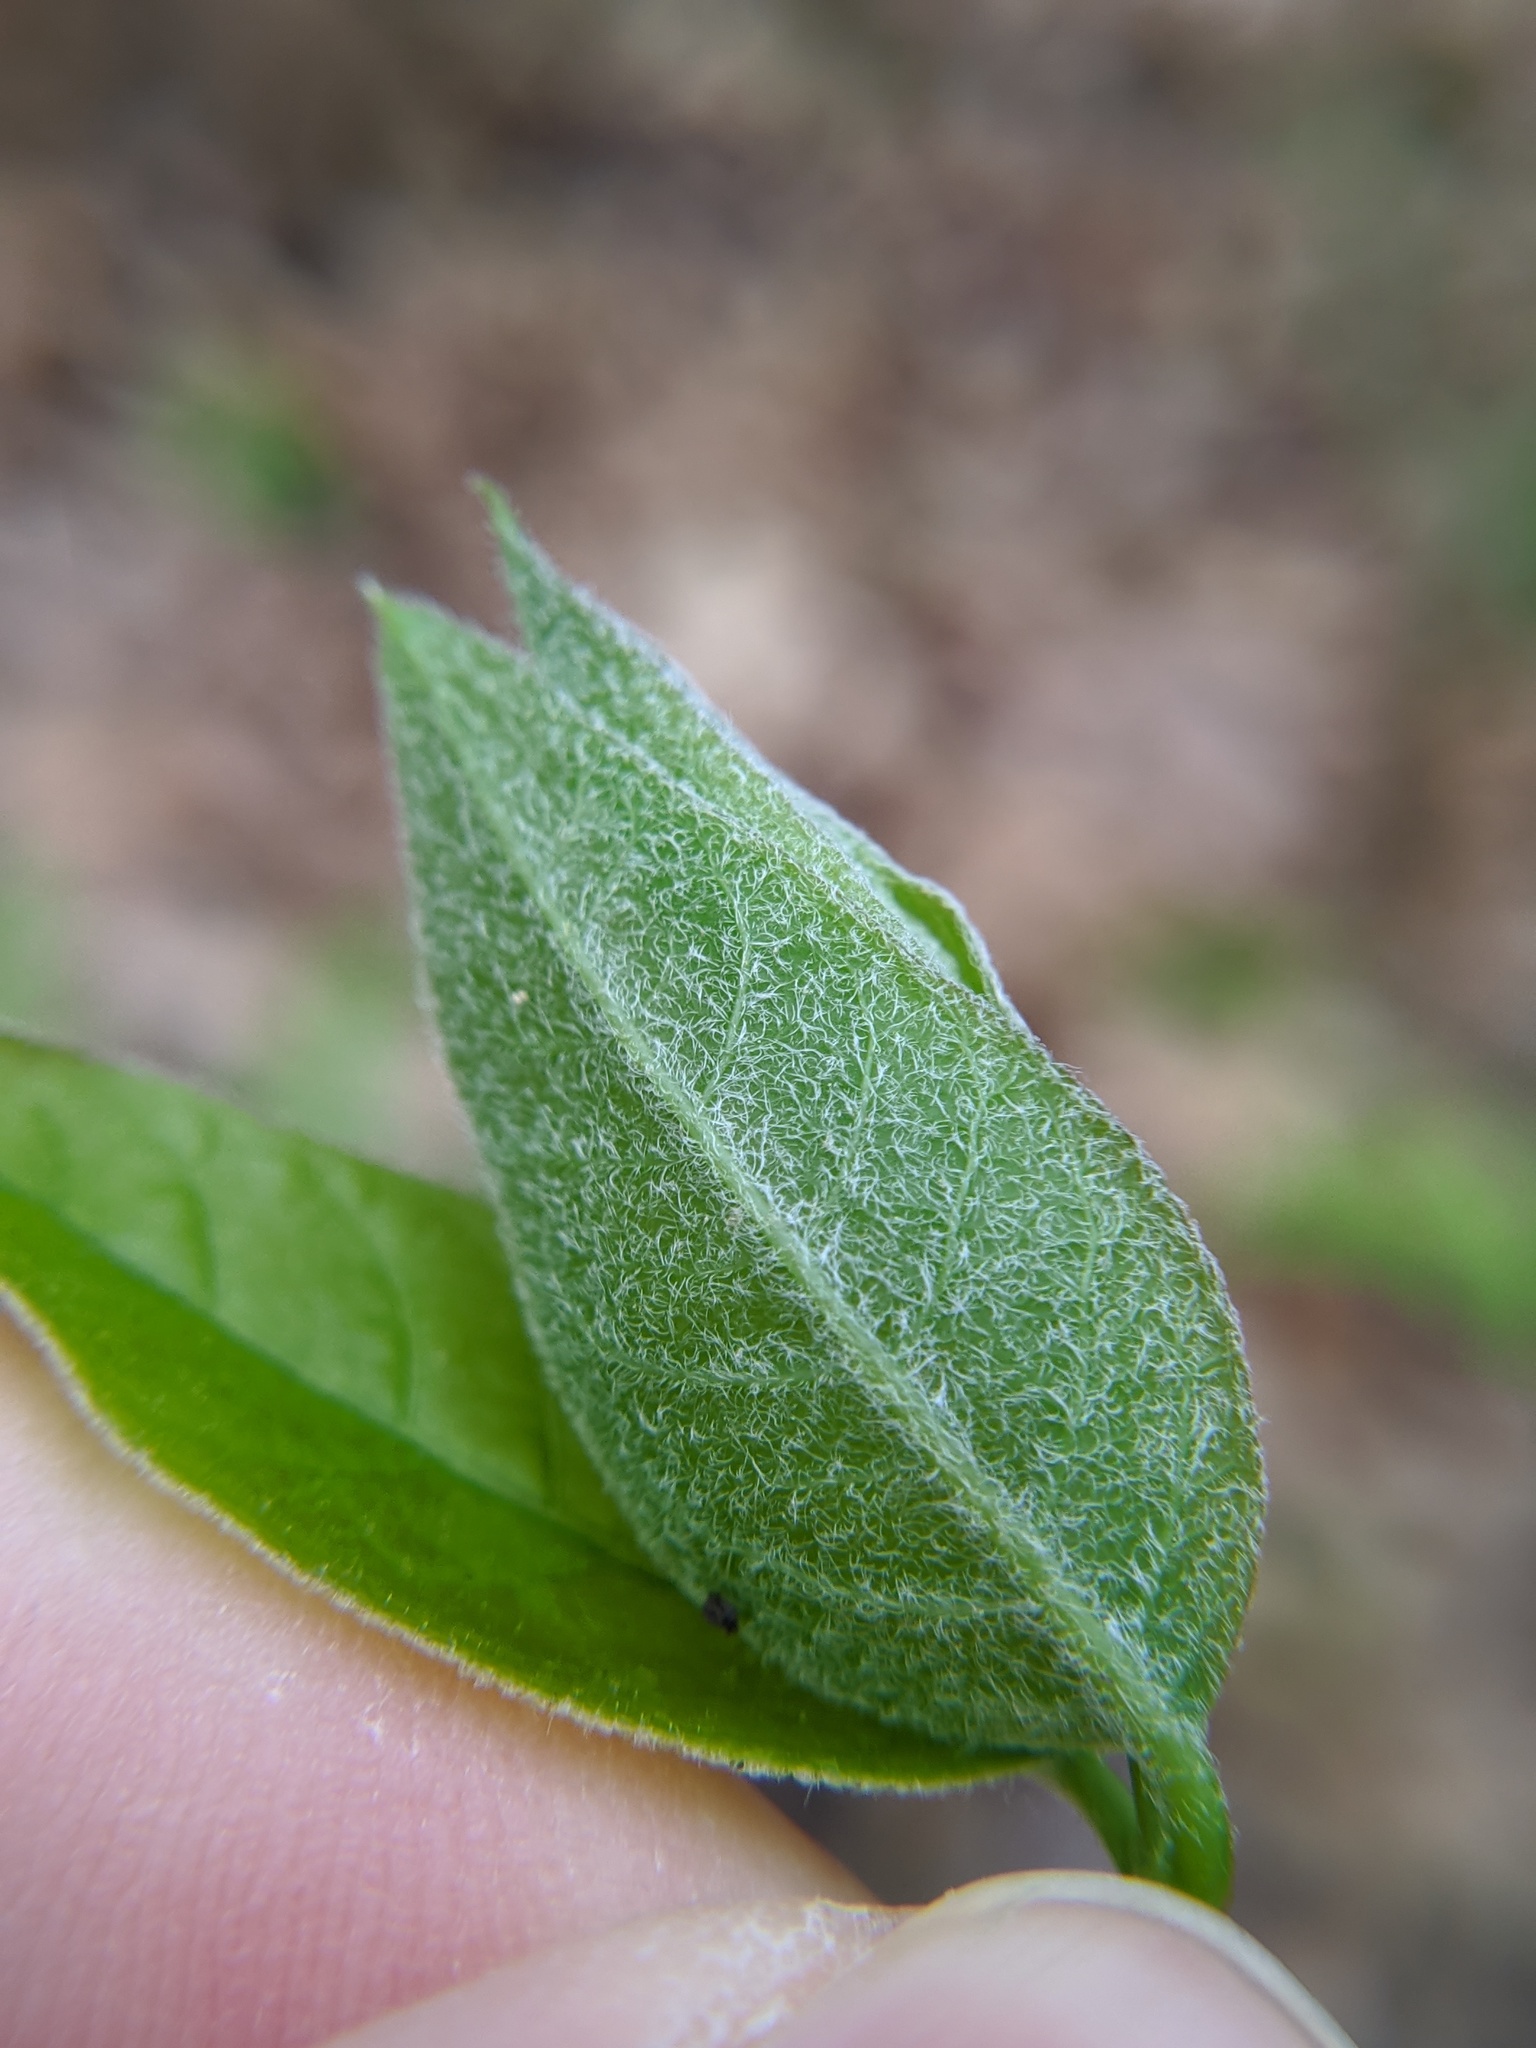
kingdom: Plantae
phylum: Tracheophyta
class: Magnoliopsida
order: Gentianales
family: Apocynaceae
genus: Apocynum
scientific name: Apocynum androsaemifolium
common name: Spreading dogbane
